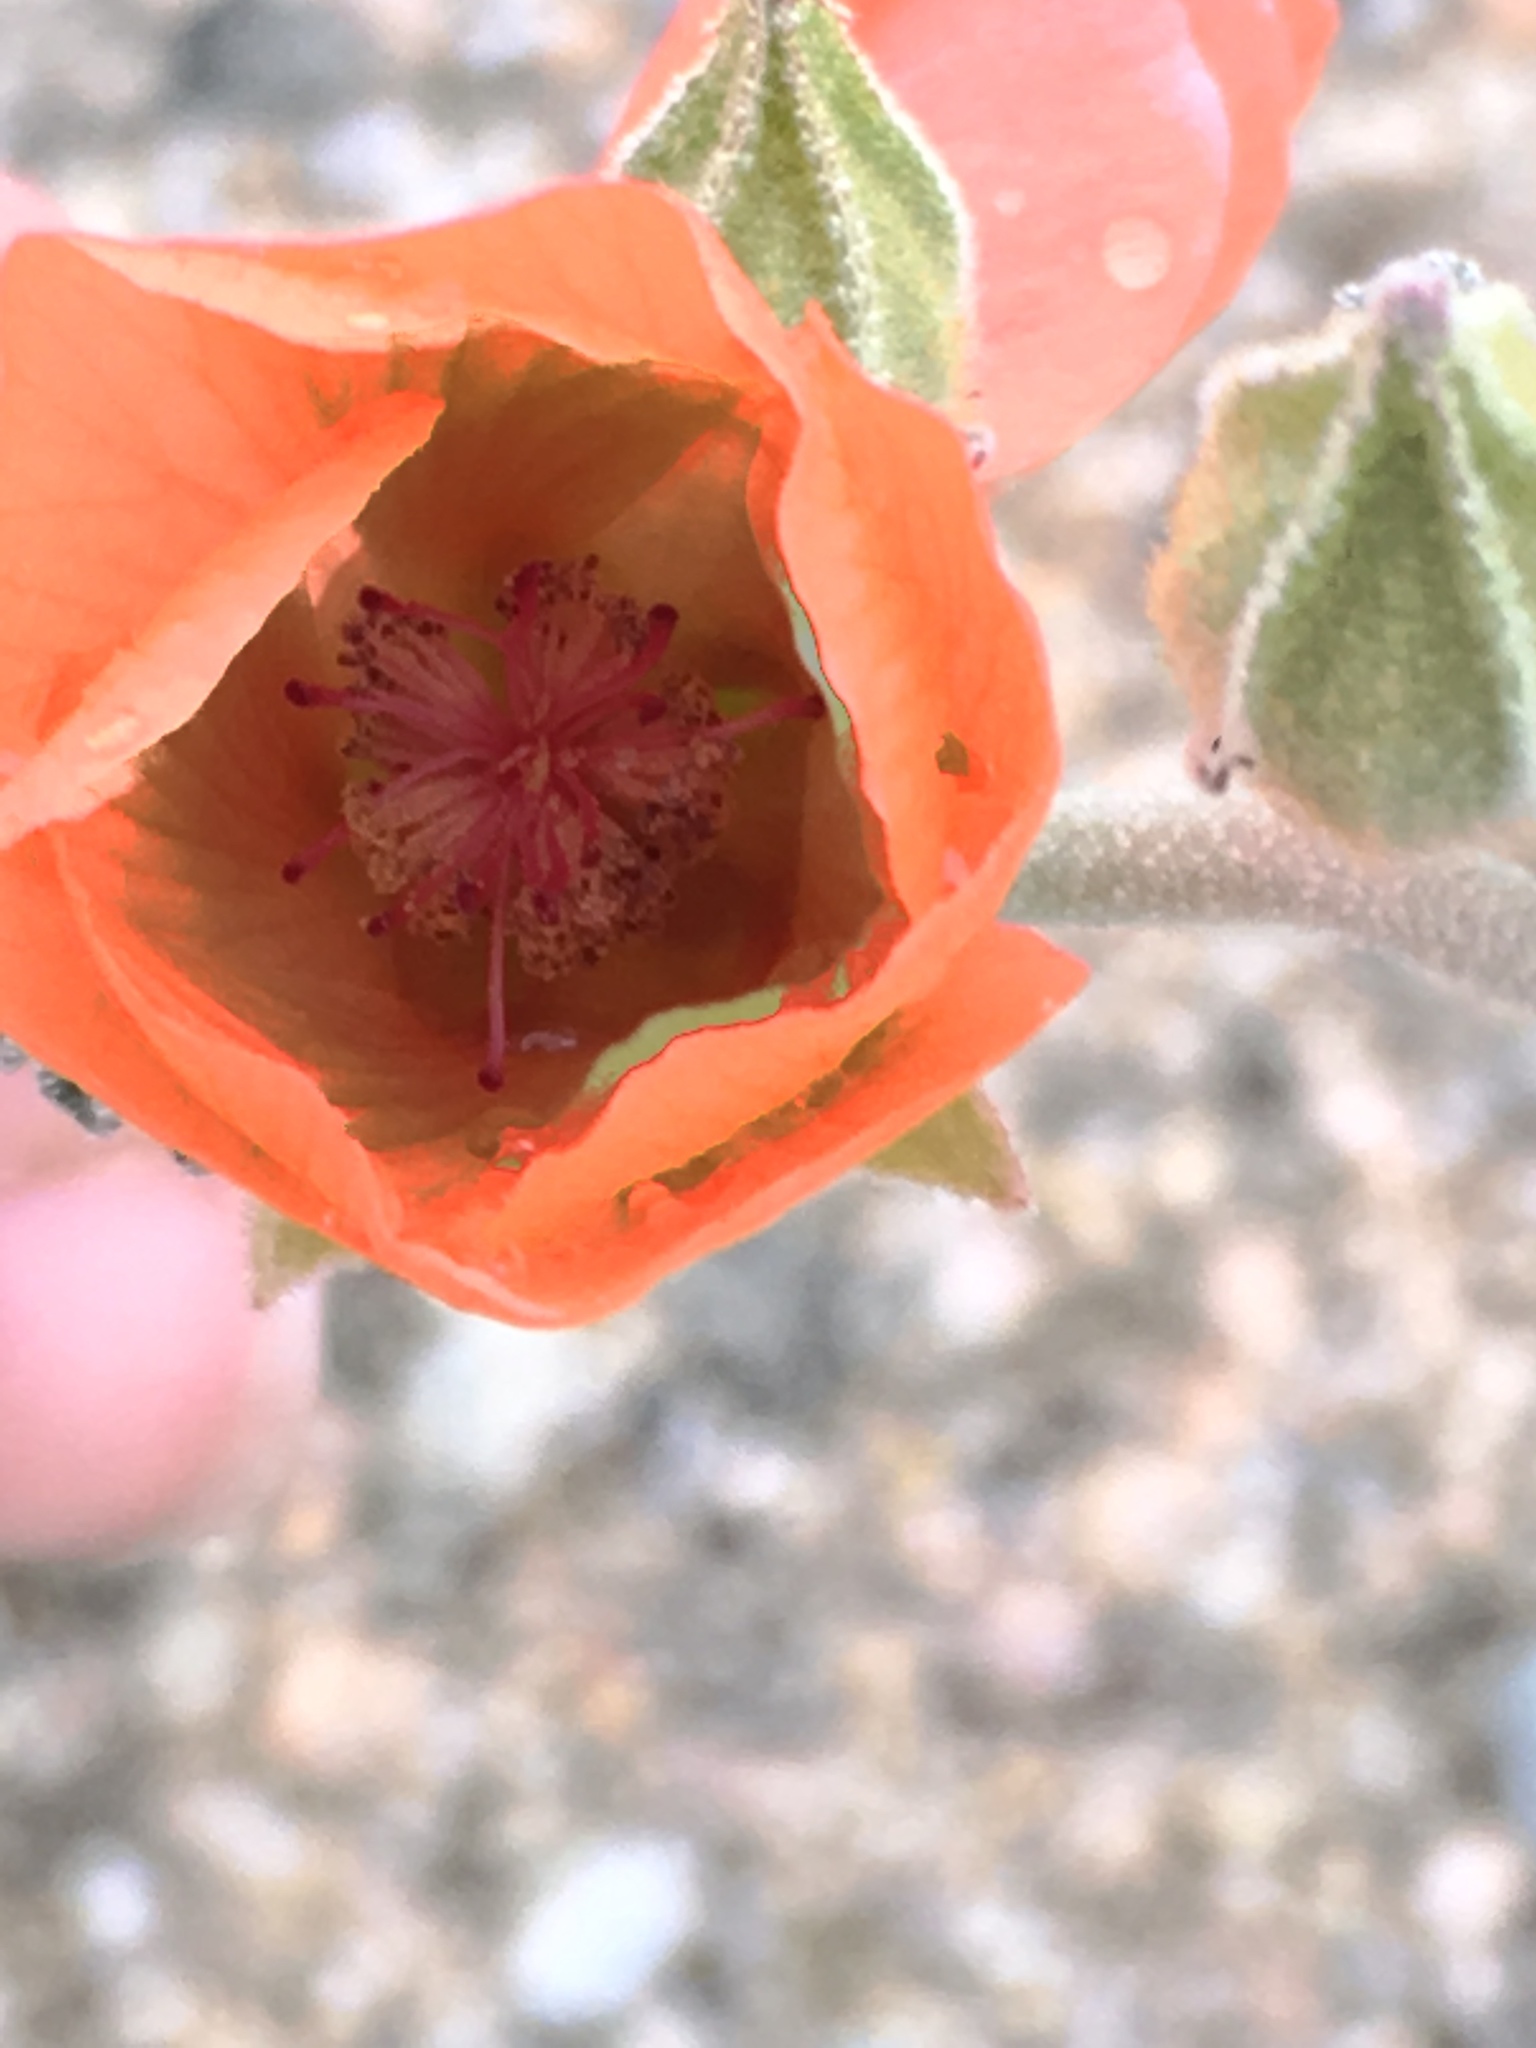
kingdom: Plantae
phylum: Tracheophyta
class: Magnoliopsida
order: Malvales
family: Malvaceae
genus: Sphaeralcea
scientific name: Sphaeralcea ambigua
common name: Apricot globe-mallow
